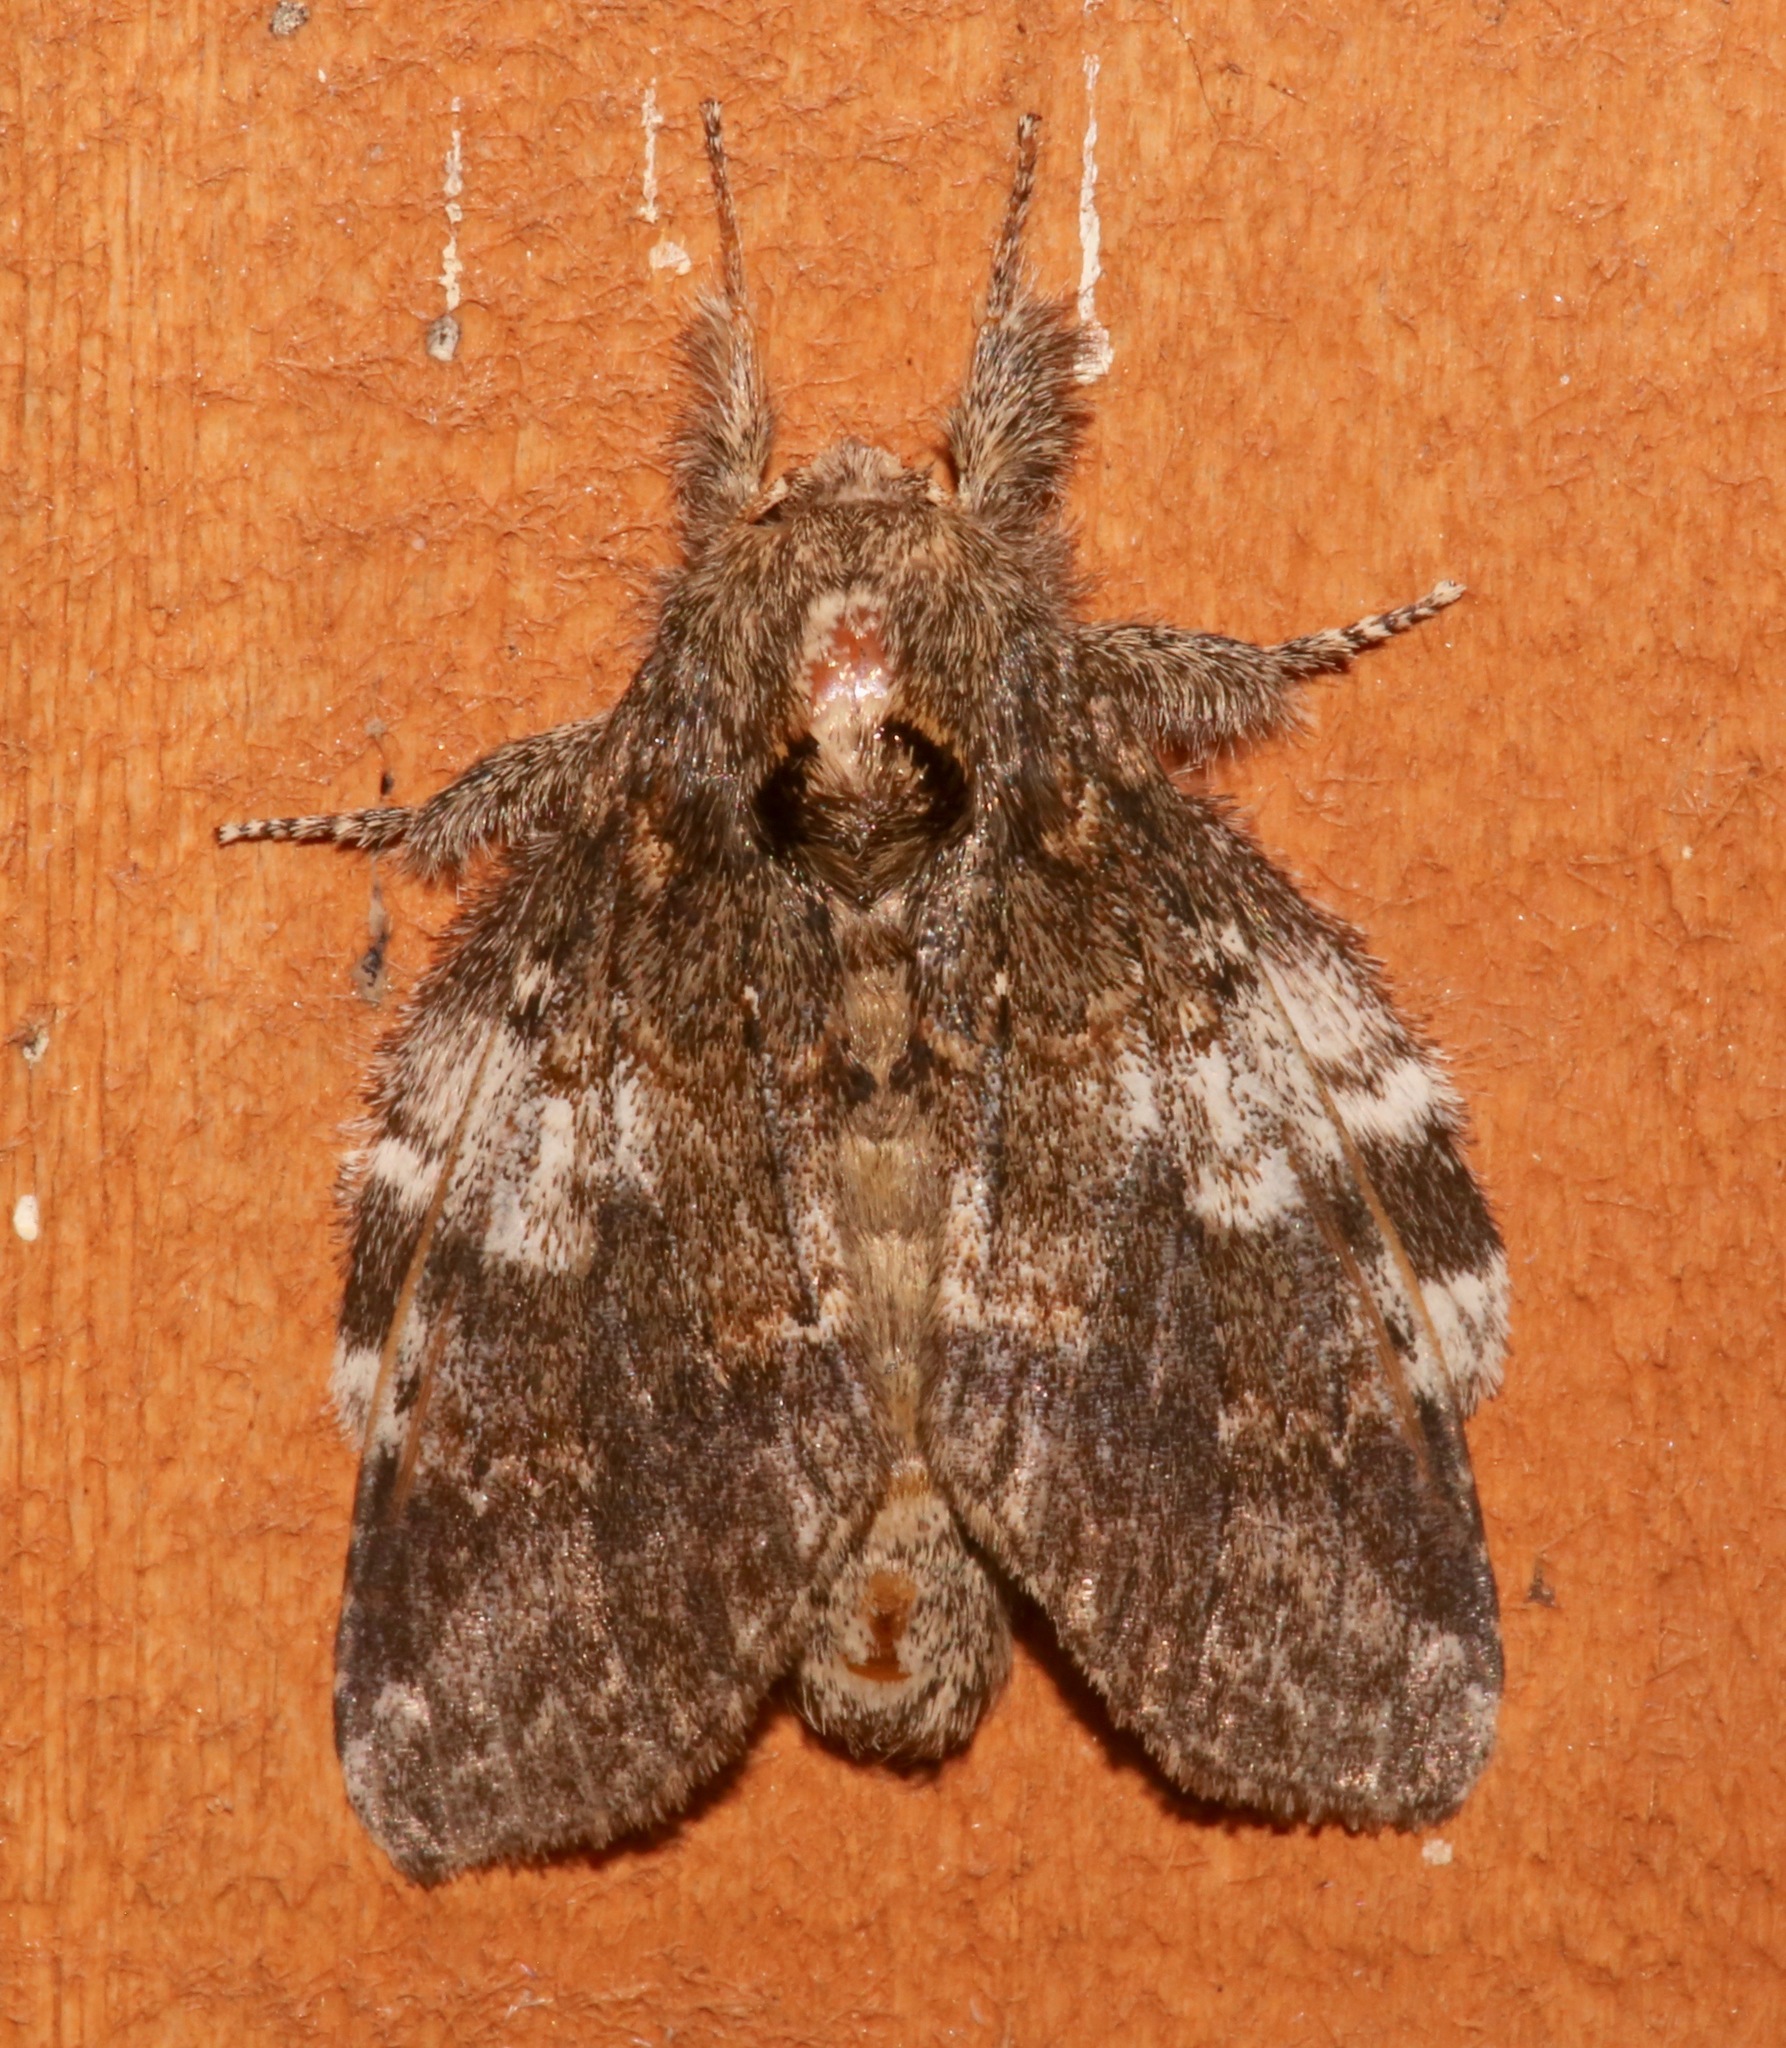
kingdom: Animalia
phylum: Arthropoda
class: Insecta
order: Lepidoptera
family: Notodontidae
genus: Peridea
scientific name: Peridea angulosa
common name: Angulose prominent
